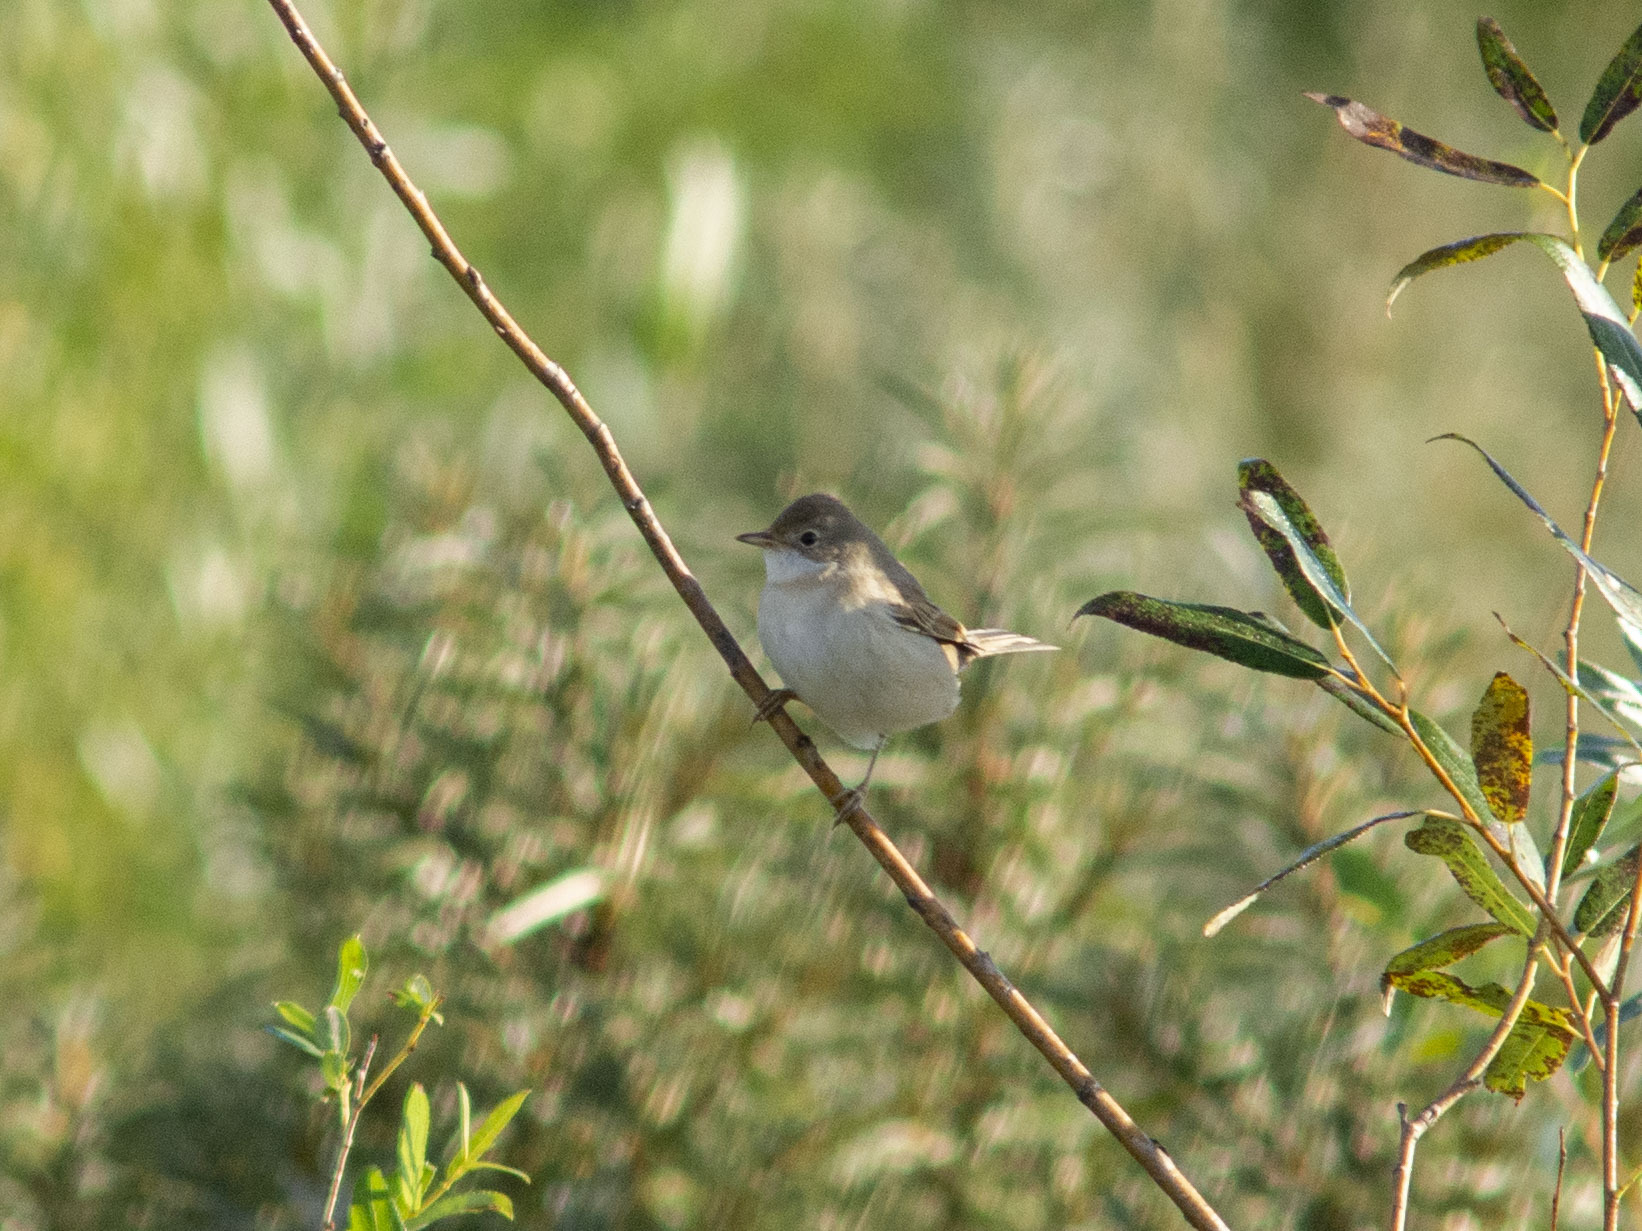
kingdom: Animalia
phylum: Chordata
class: Aves
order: Passeriformes
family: Sylviidae
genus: Sylvia
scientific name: Sylvia communis
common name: Common whitethroat
